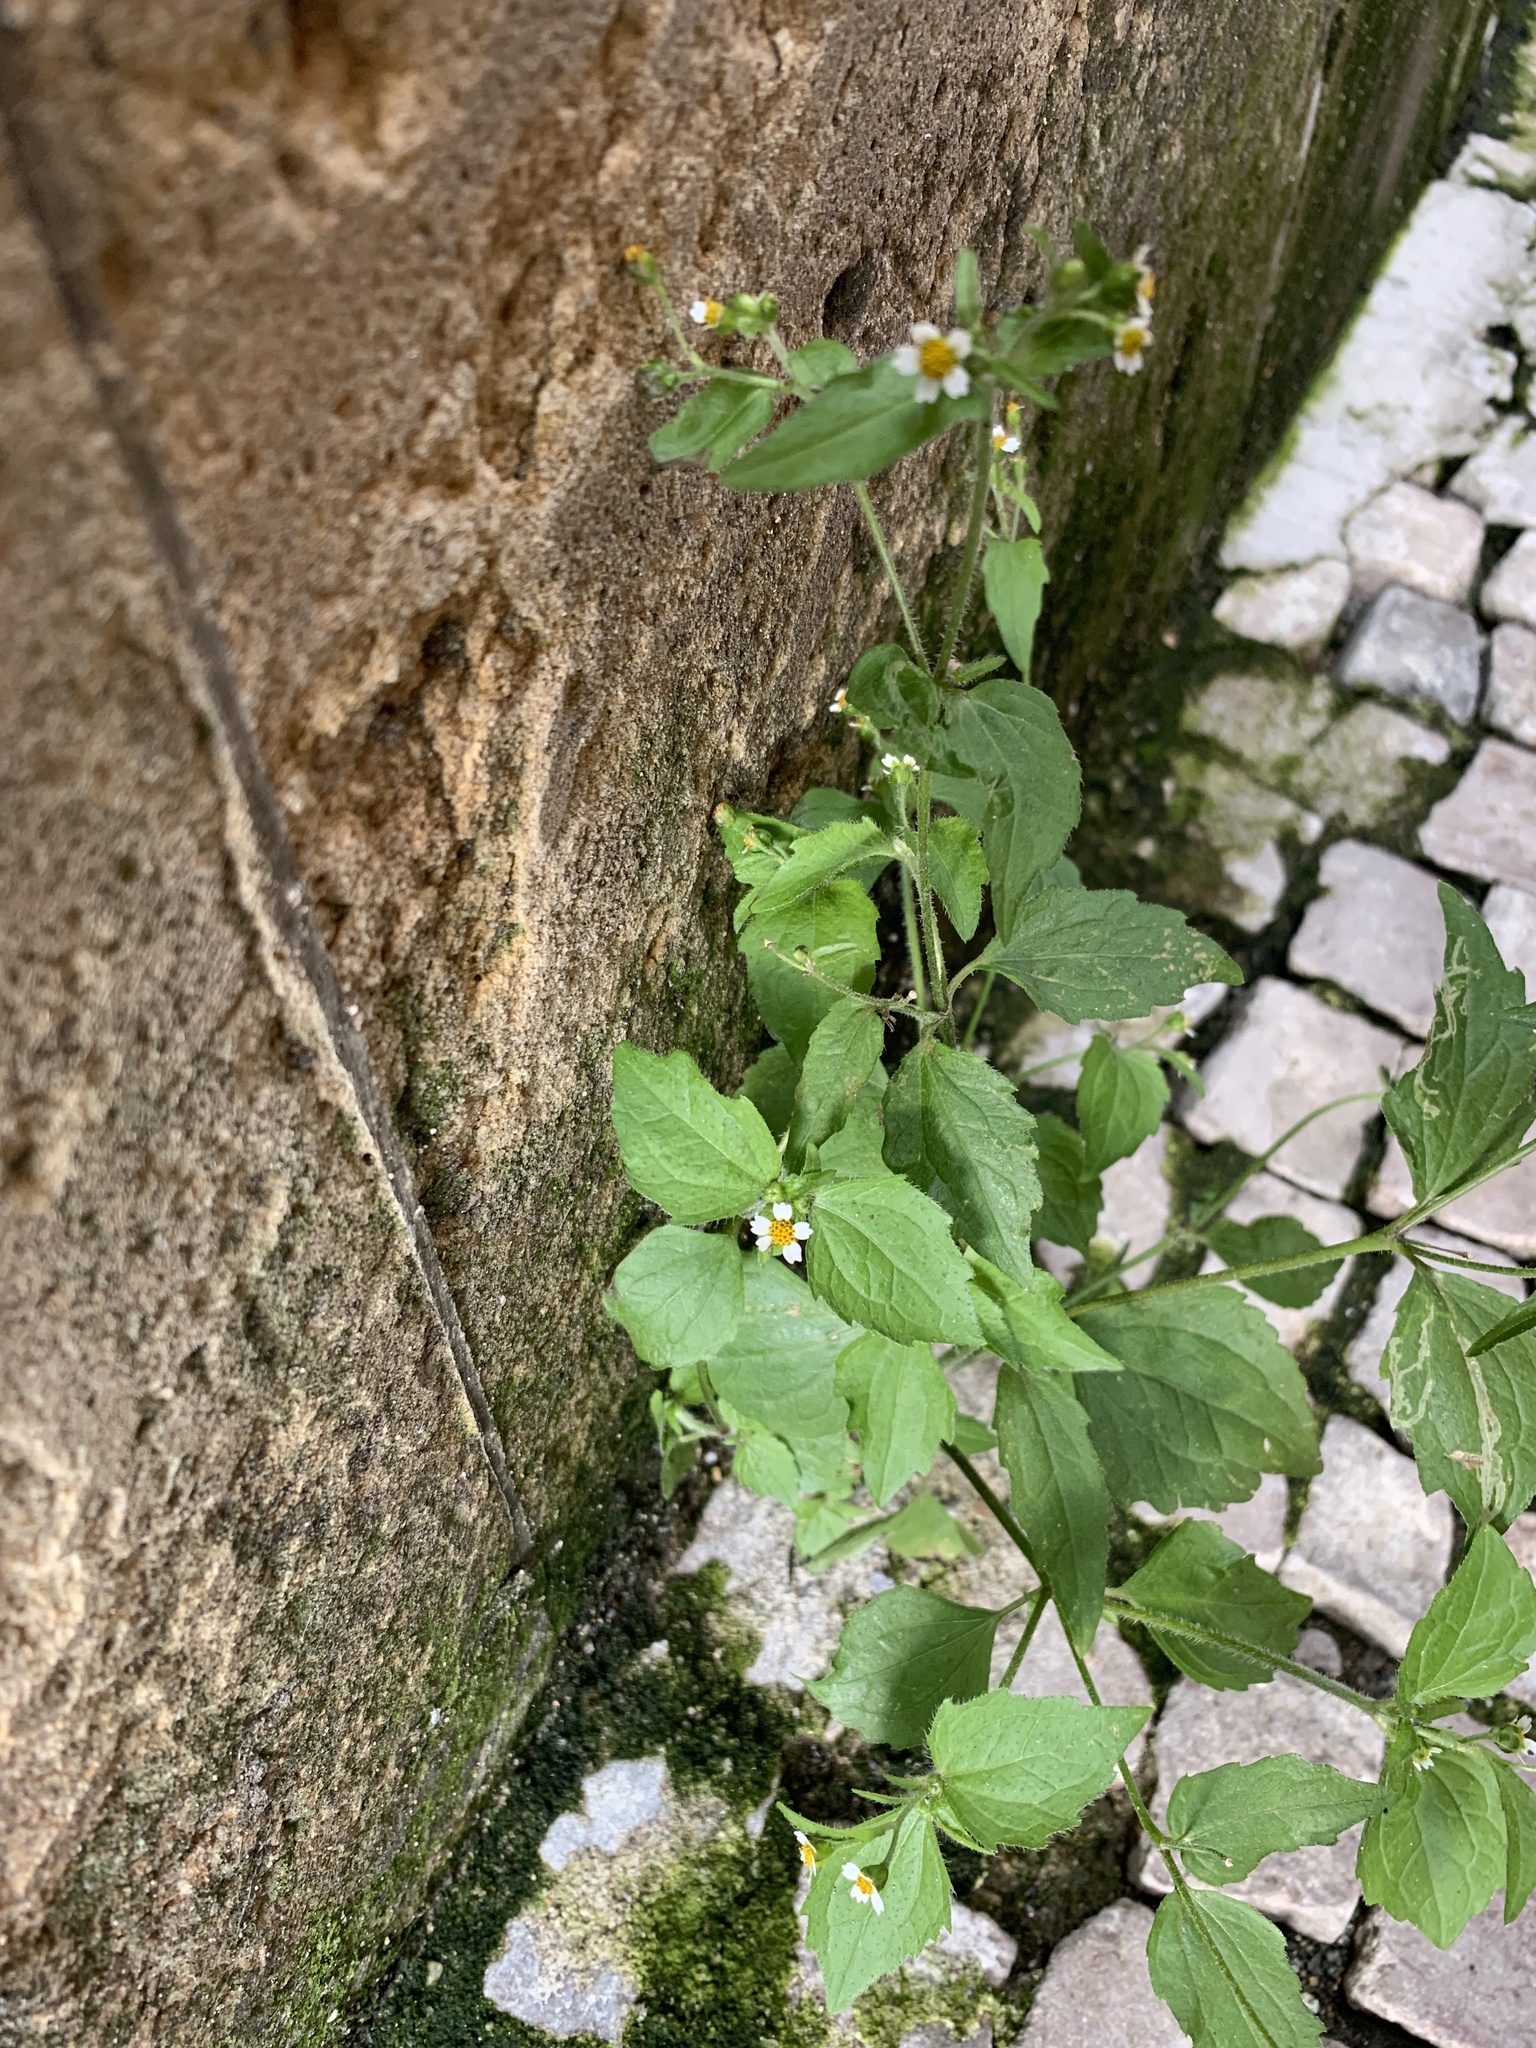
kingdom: Plantae
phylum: Tracheophyta
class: Magnoliopsida
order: Asterales
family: Asteraceae
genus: Galinsoga
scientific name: Galinsoga quadriradiata
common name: Shaggy soldier
